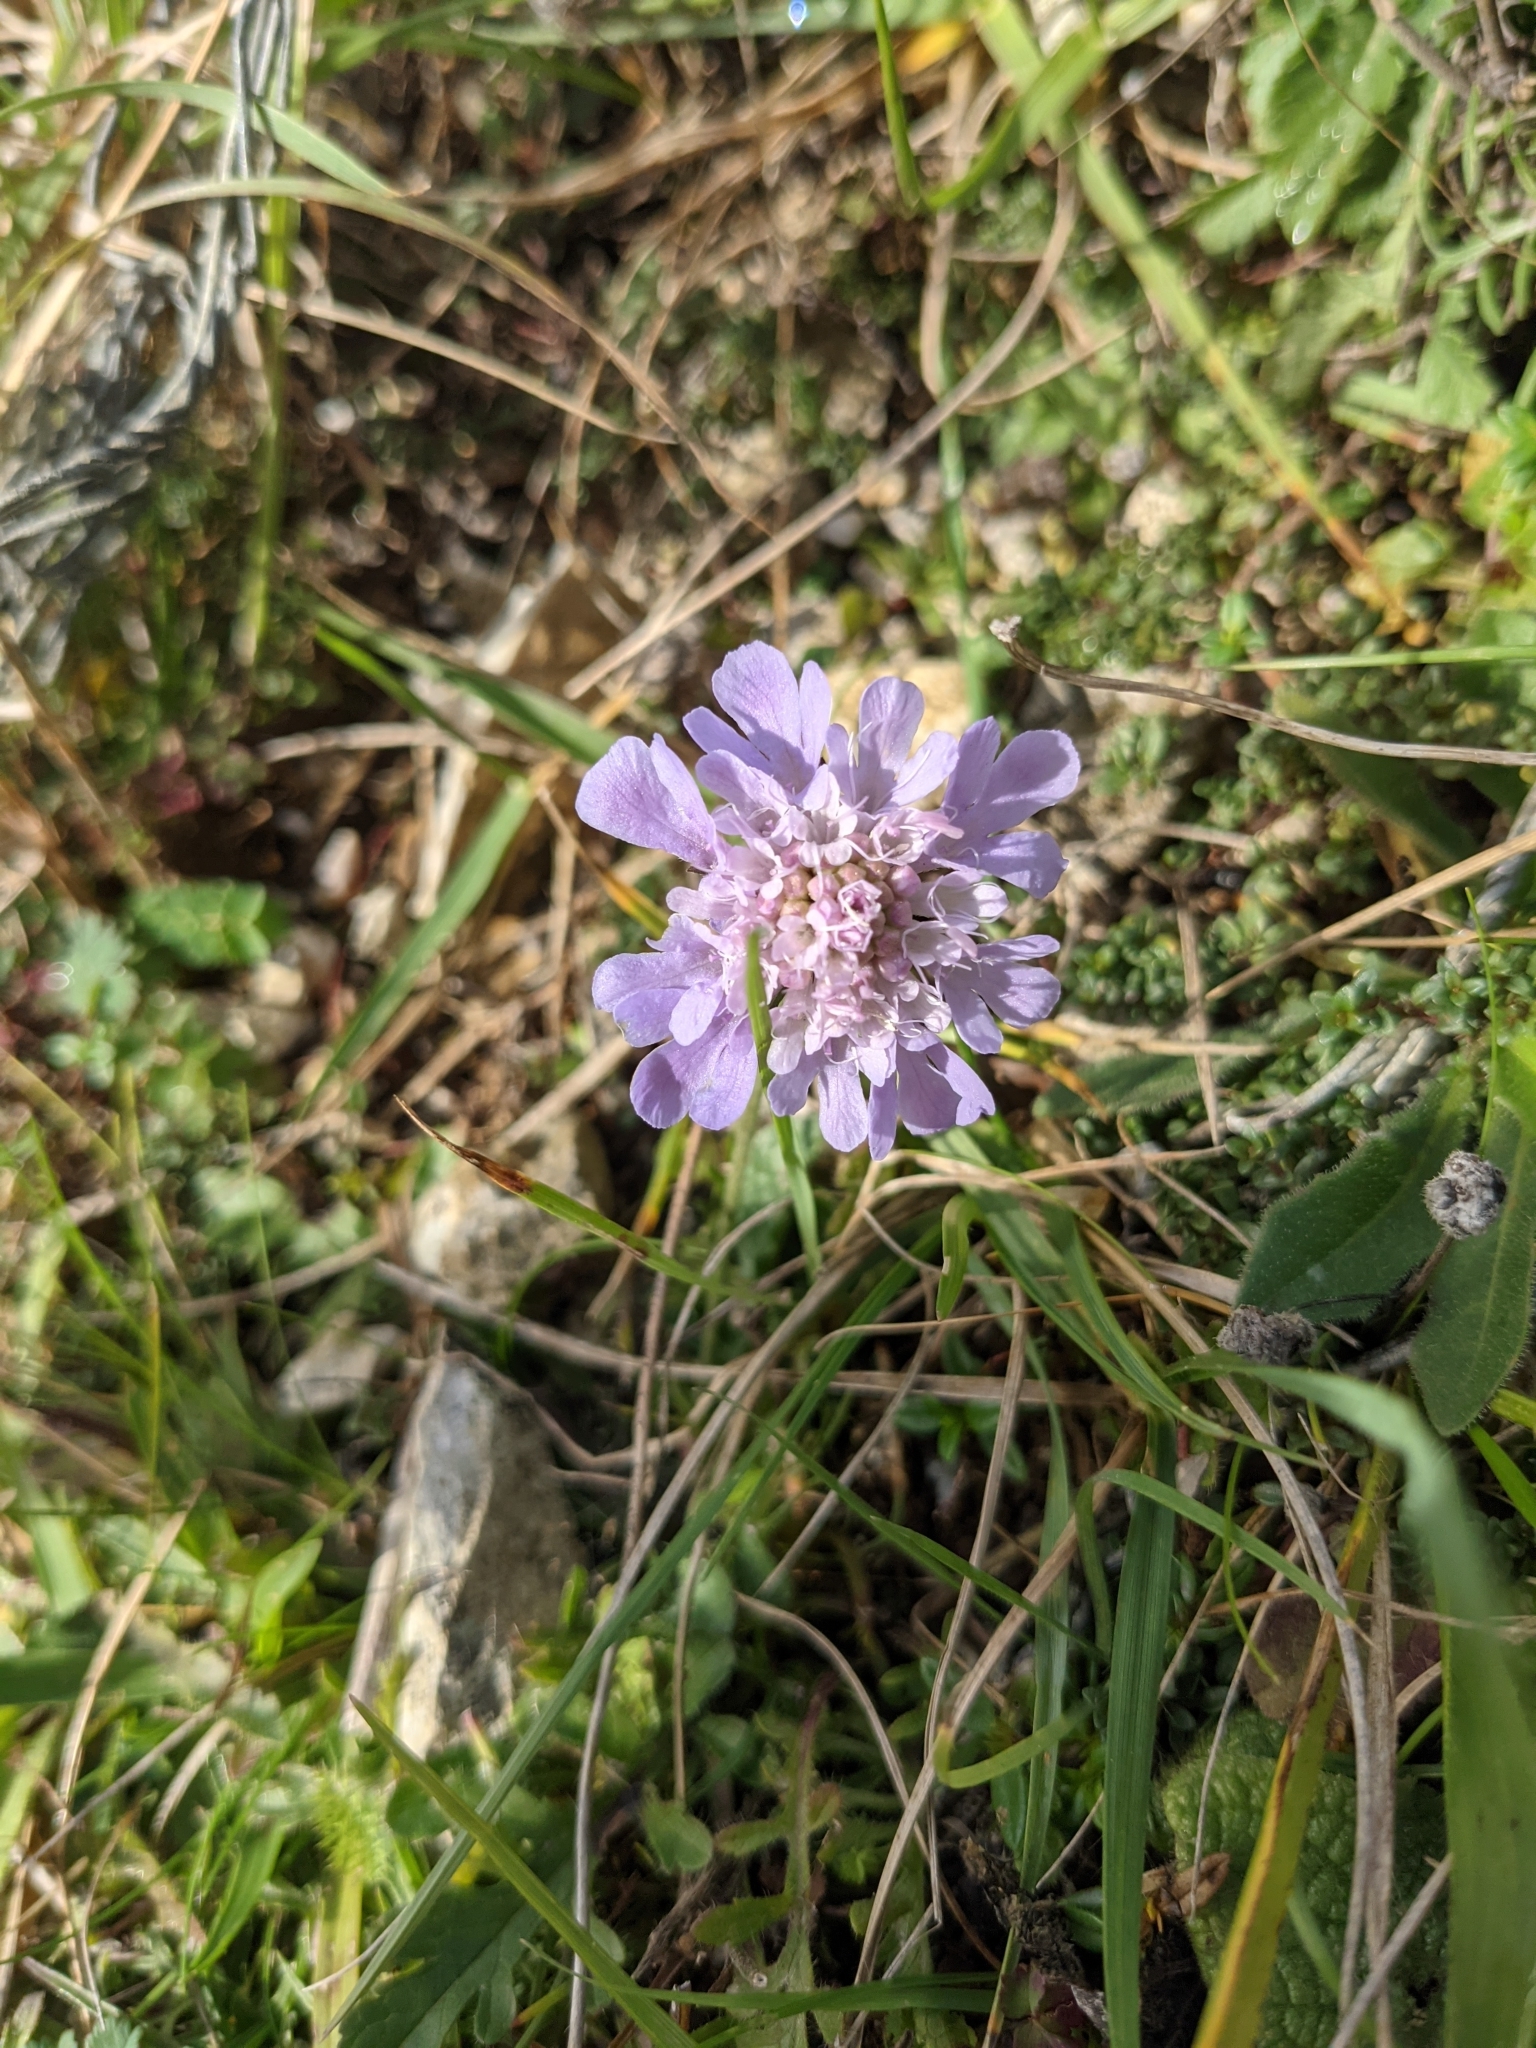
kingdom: Plantae
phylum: Tracheophyta
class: Magnoliopsida
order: Dipsacales
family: Caprifoliaceae
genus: Scabiosa
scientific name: Scabiosa columbaria
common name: Small scabious
